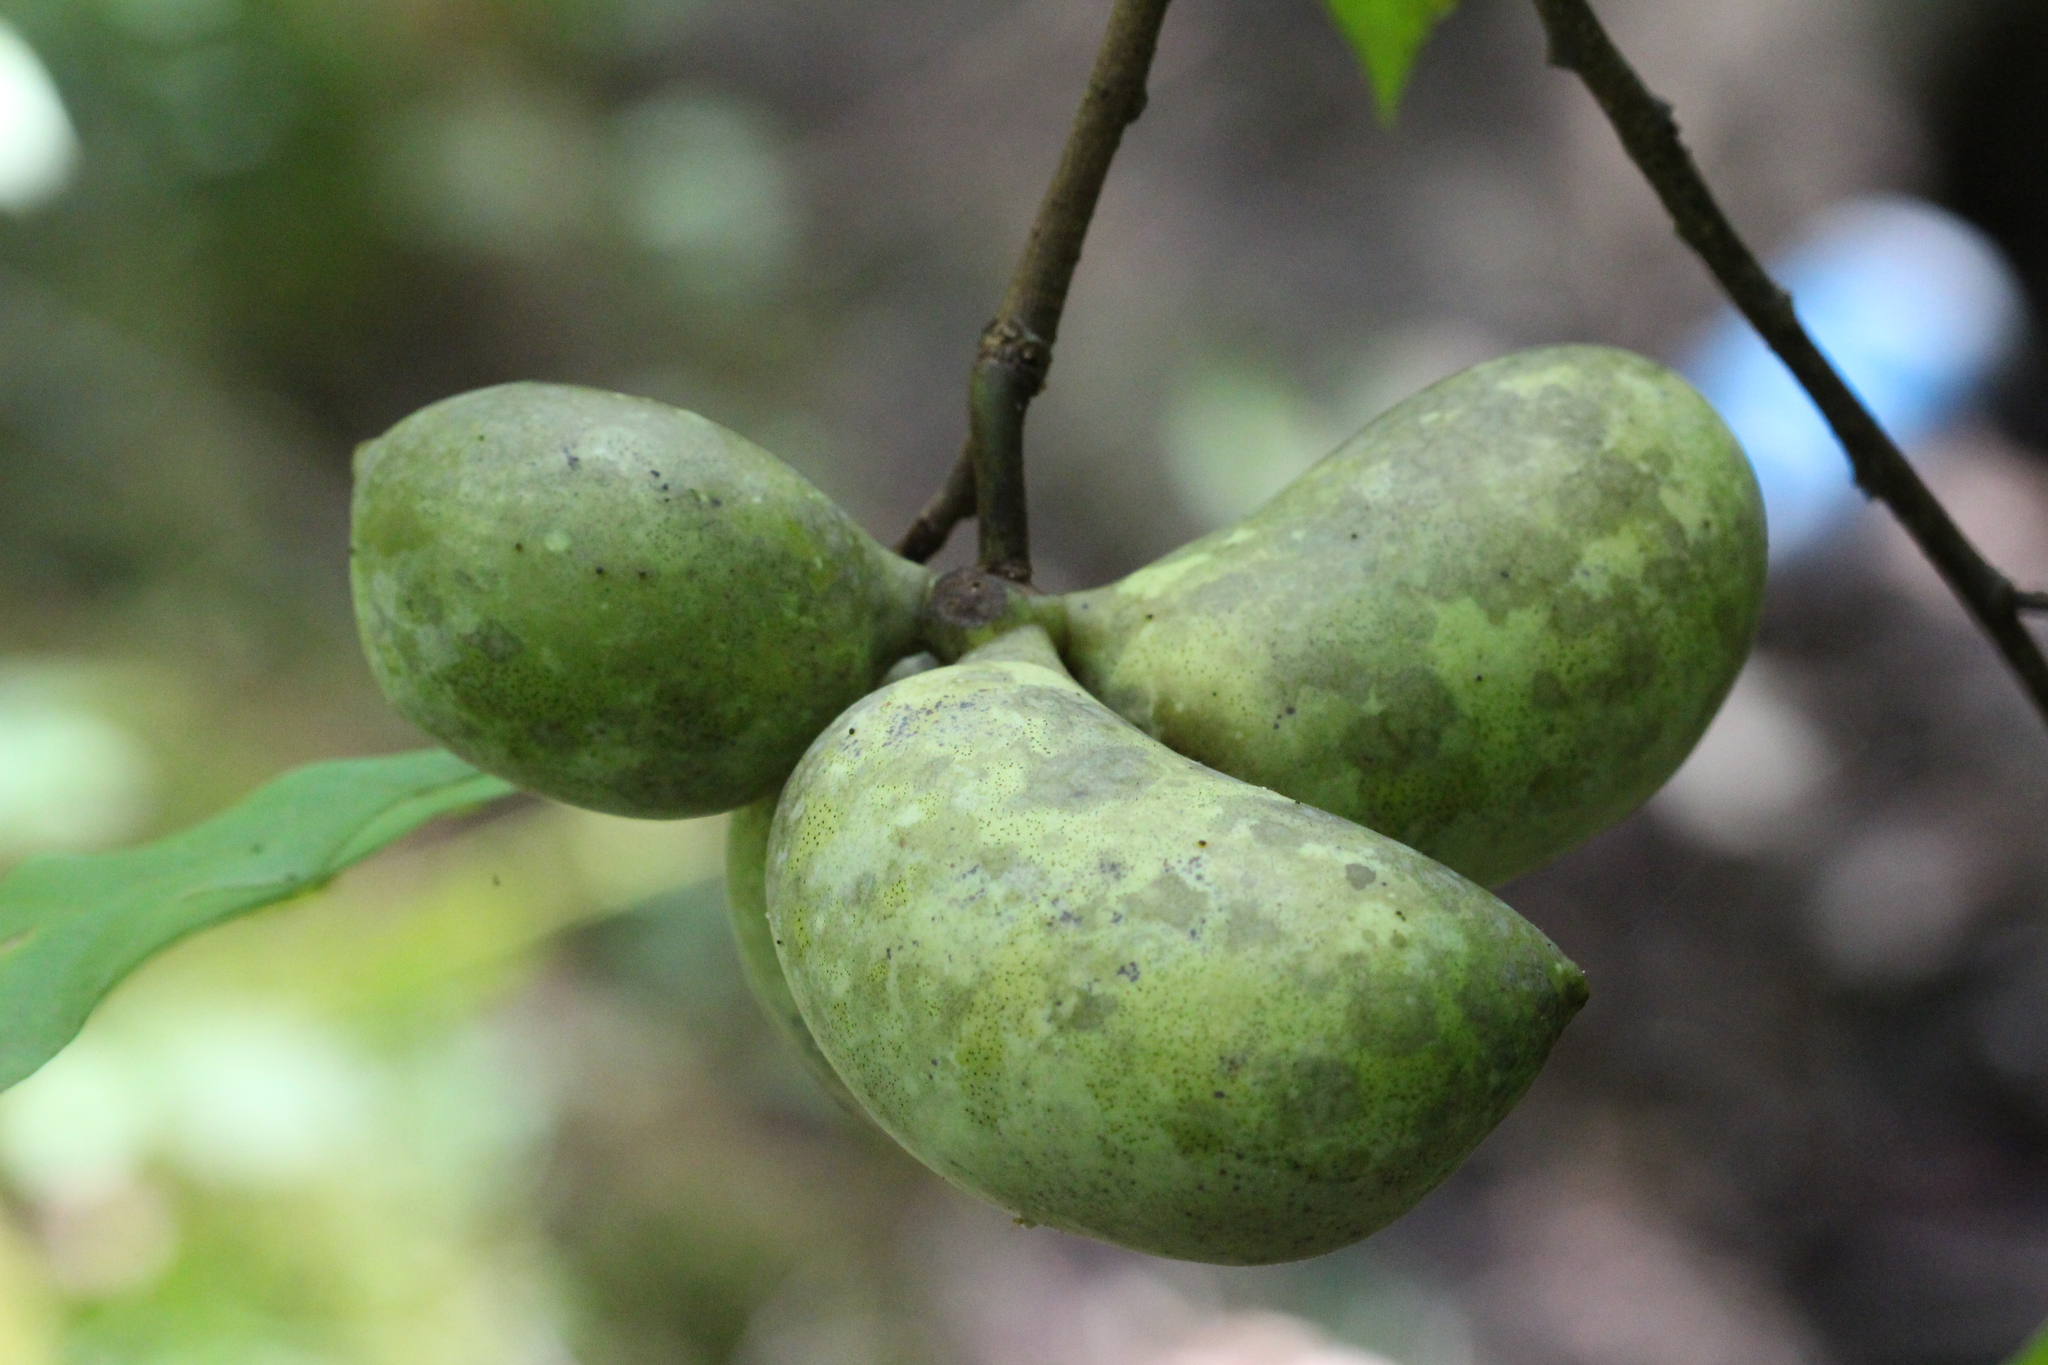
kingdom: Plantae
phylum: Tracheophyta
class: Magnoliopsida
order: Magnoliales
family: Annonaceae
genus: Asimina
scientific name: Asimina triloba
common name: Dog-banana
